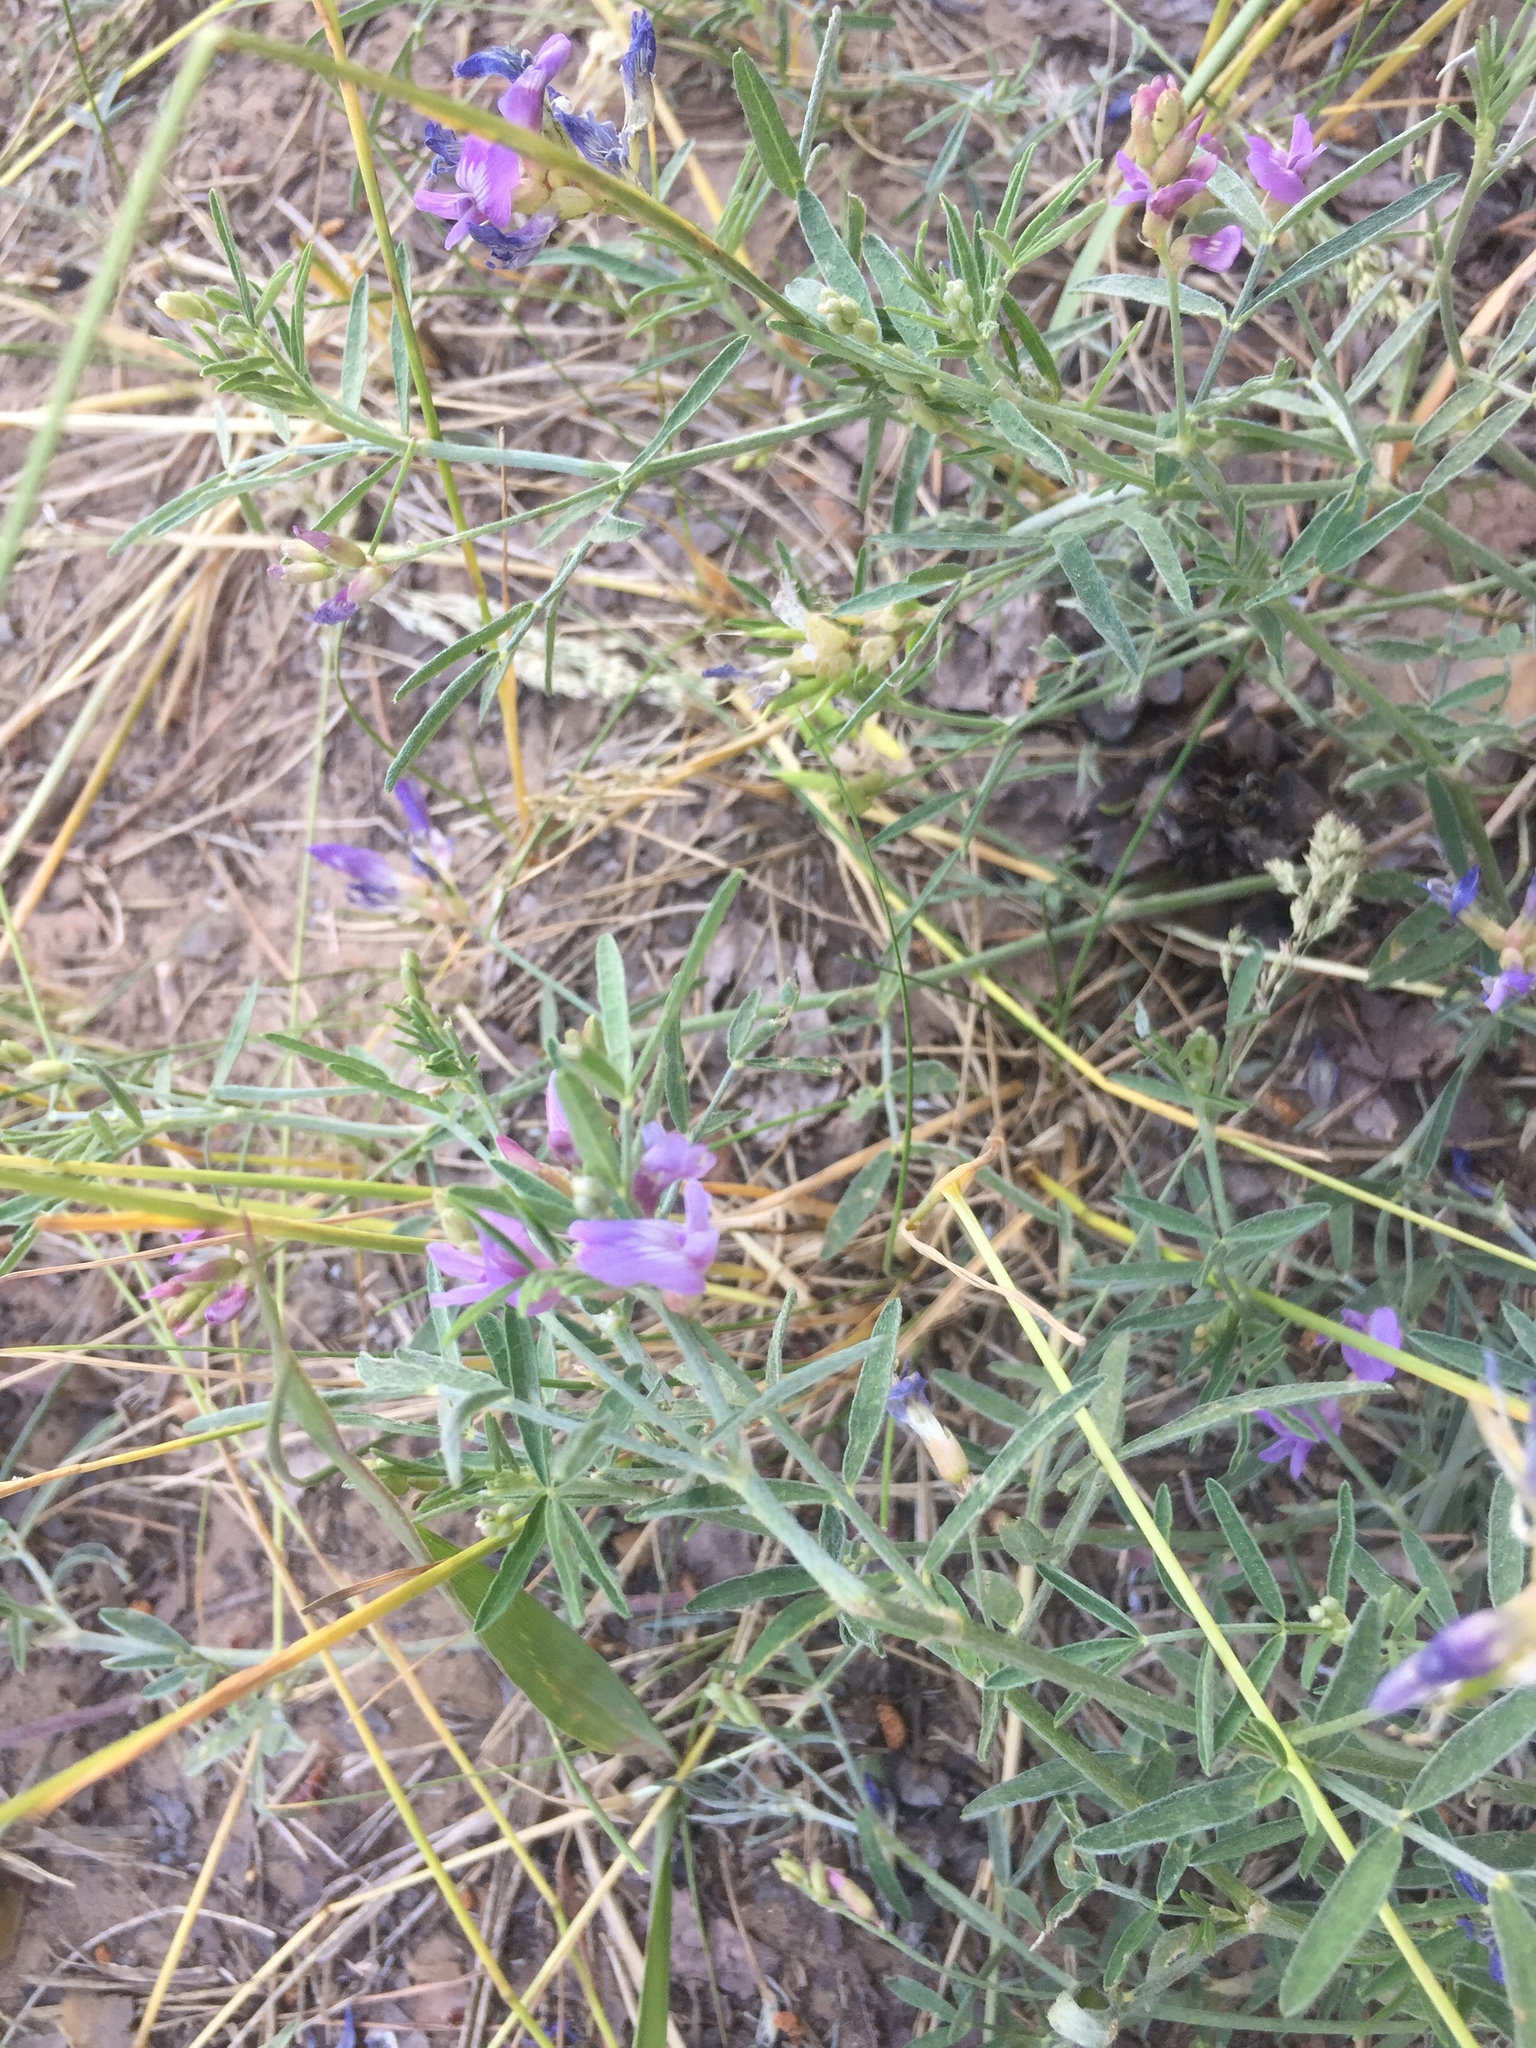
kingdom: Plantae
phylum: Tracheophyta
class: Magnoliopsida
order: Fabales
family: Fabaceae
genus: Astragalus
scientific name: Astragalus arenarius
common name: Arenarious milk-vetch
